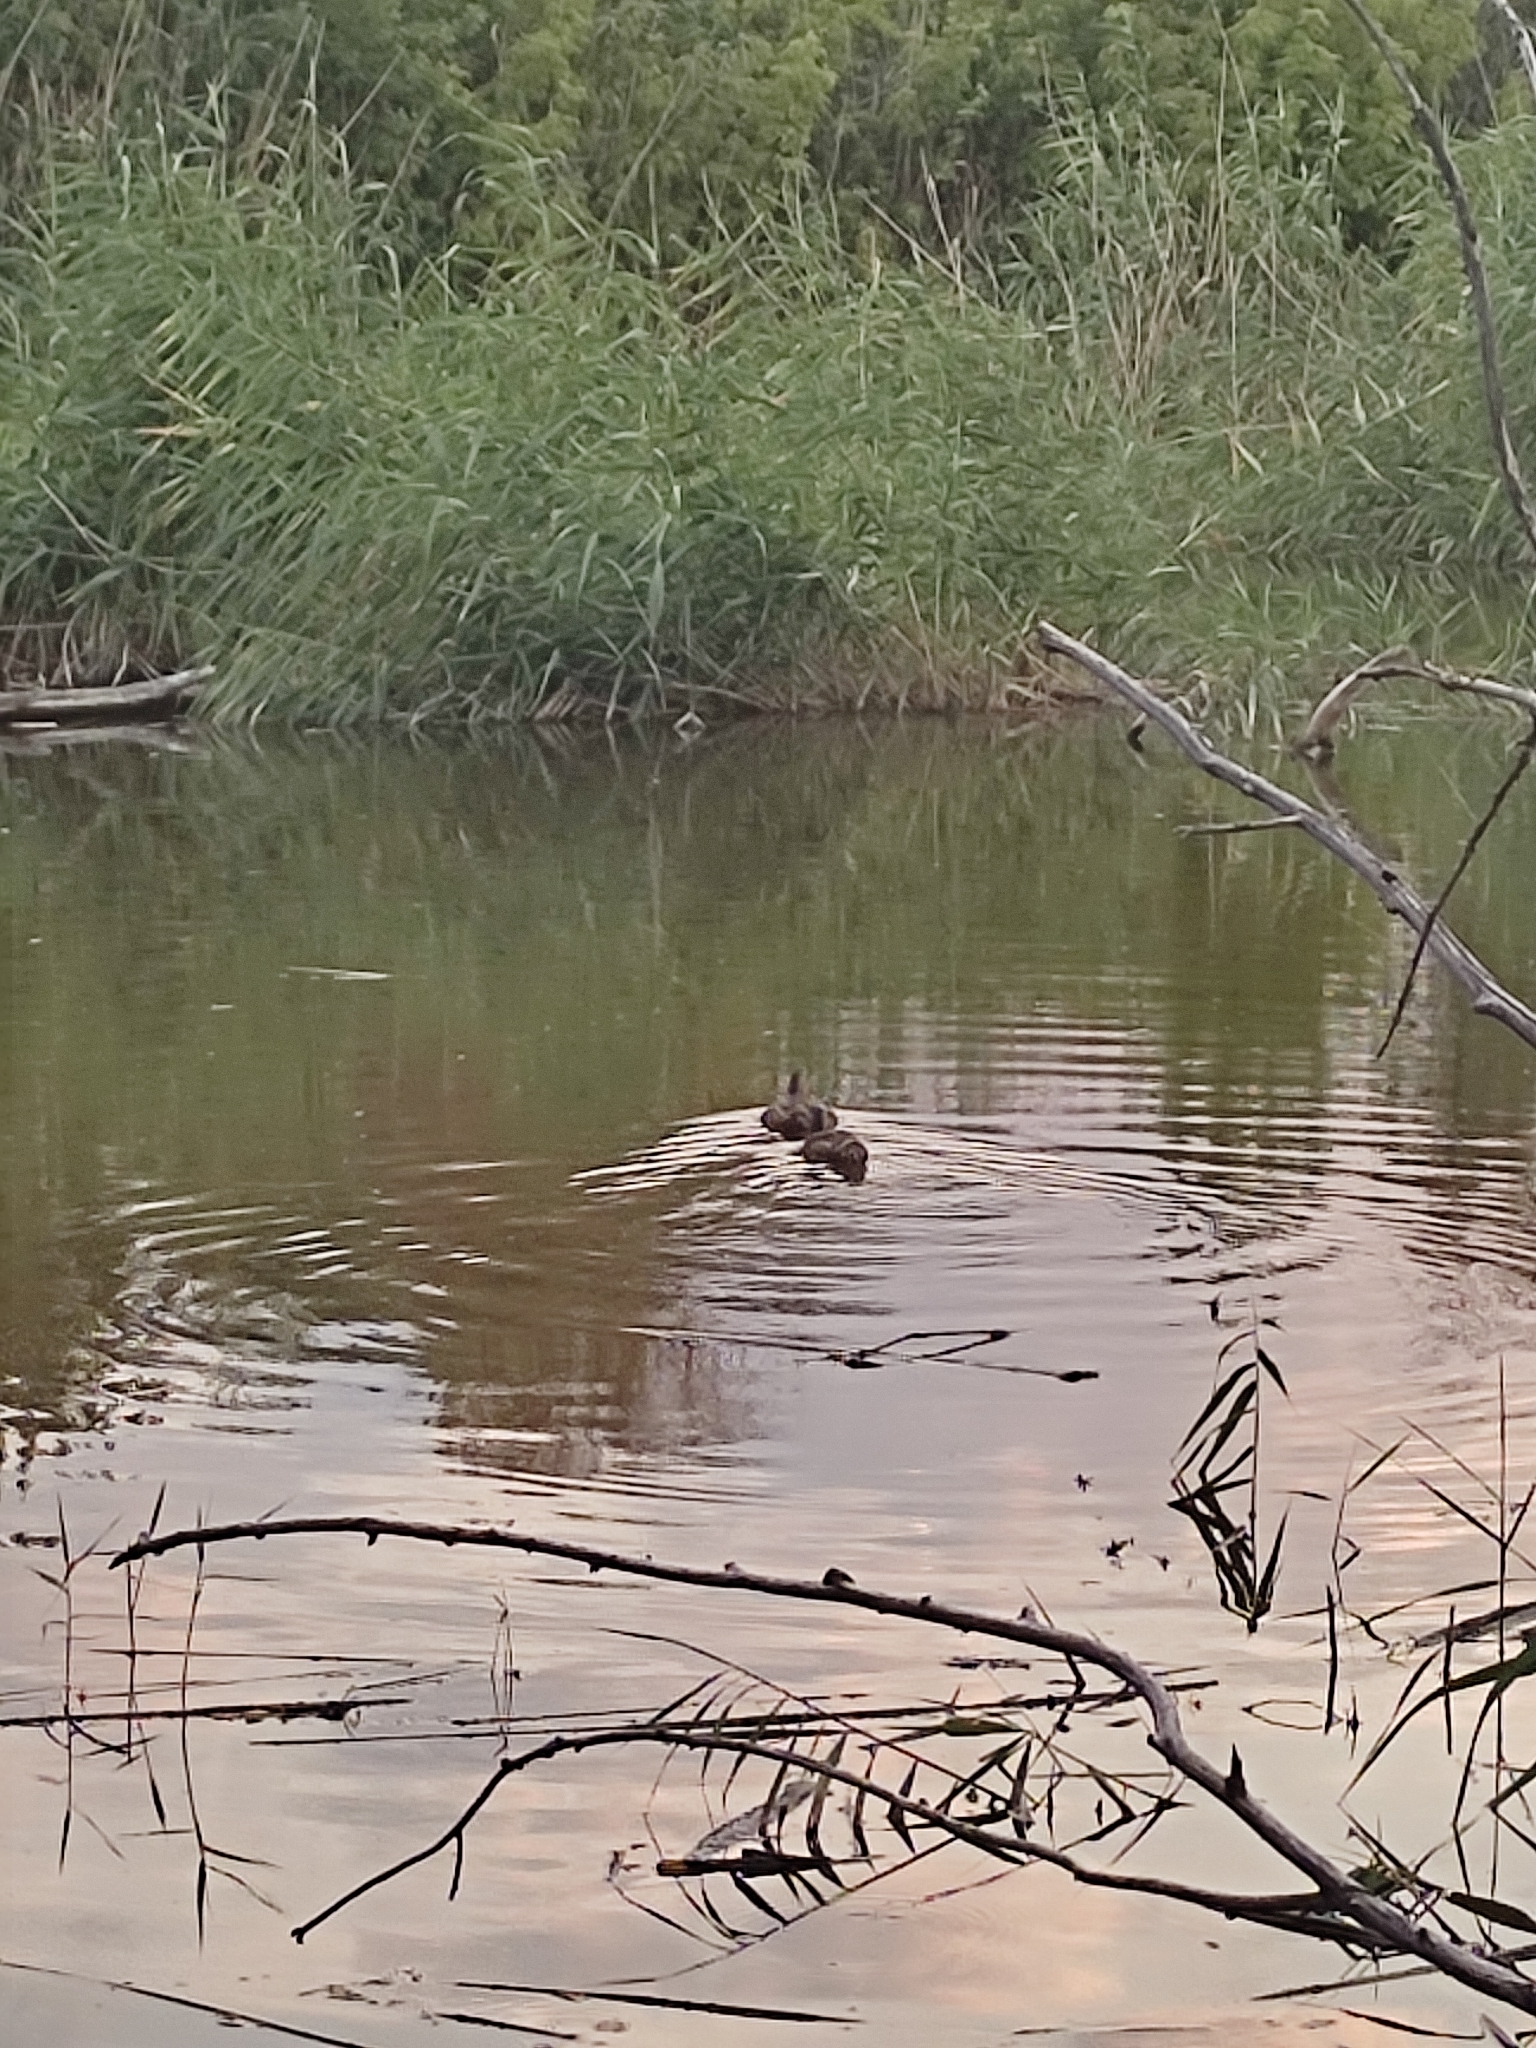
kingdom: Animalia
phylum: Chordata
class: Aves
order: Anseriformes
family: Anatidae
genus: Anas
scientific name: Anas platyrhynchos
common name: Mallard
